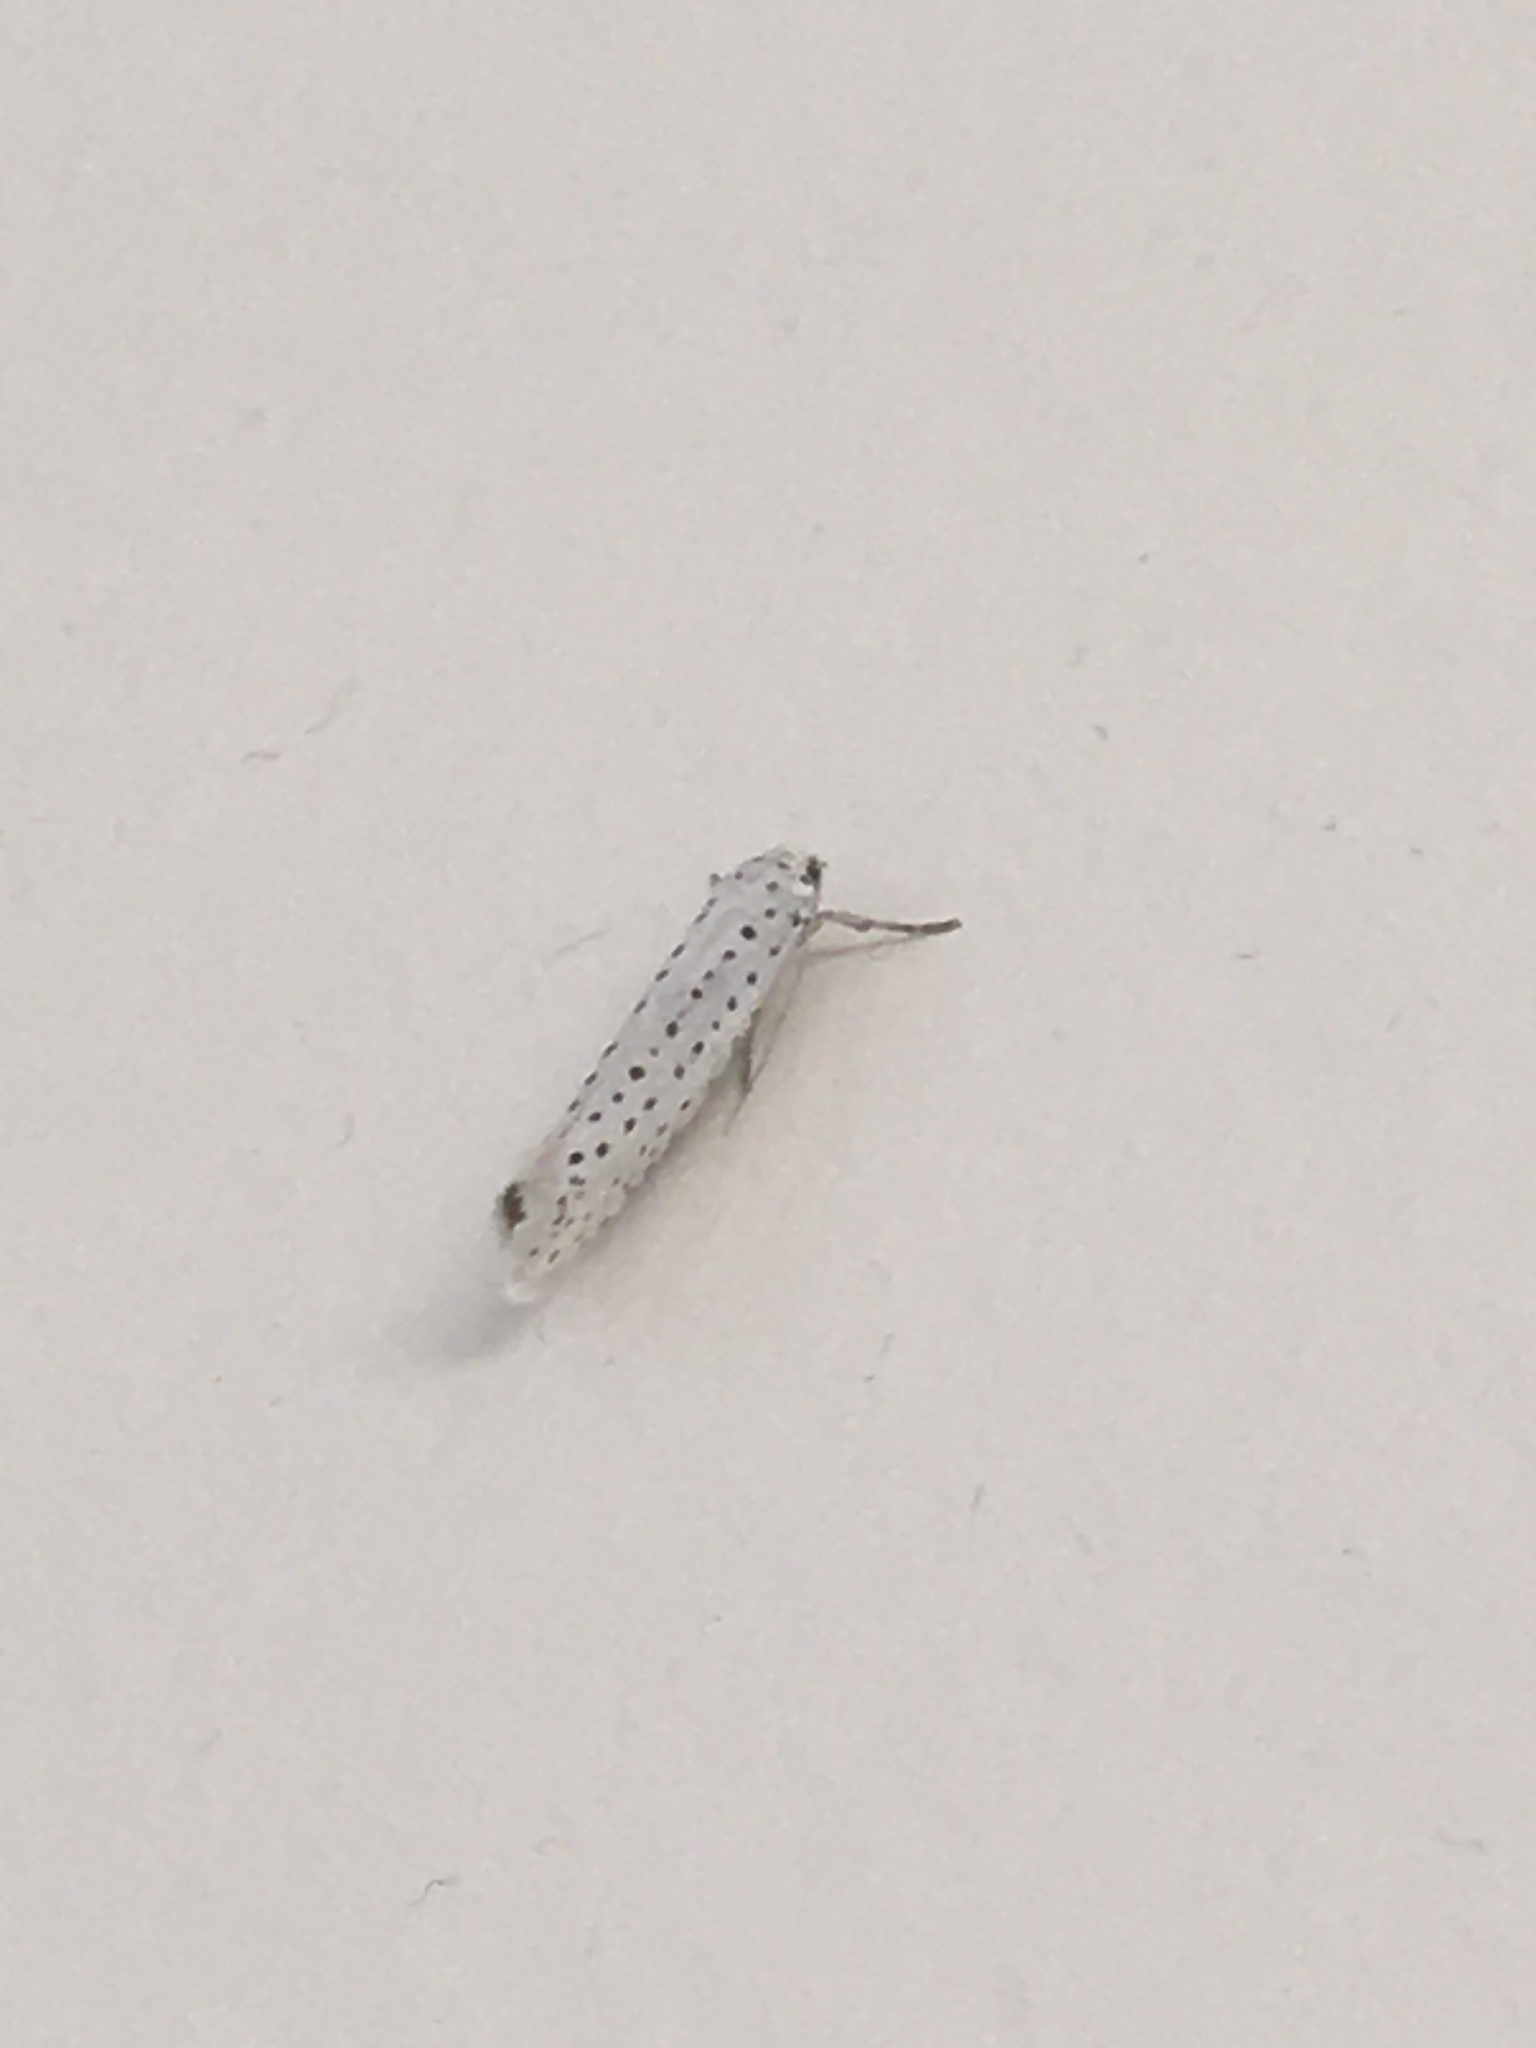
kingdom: Animalia
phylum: Arthropoda
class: Insecta
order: Lepidoptera
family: Yponomeutidae
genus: Yponomeuta
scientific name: Yponomeuta evonymella
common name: Bird-cherry ermine
